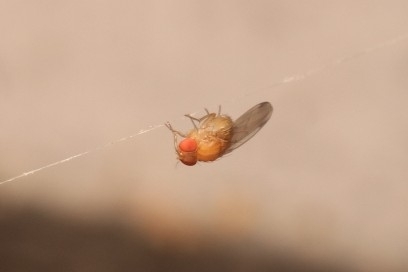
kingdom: Animalia
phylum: Arthropoda
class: Insecta
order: Diptera
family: Drosophilidae
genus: Drosophila
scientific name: Drosophila suzukii
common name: Spotted-wing drosophila
